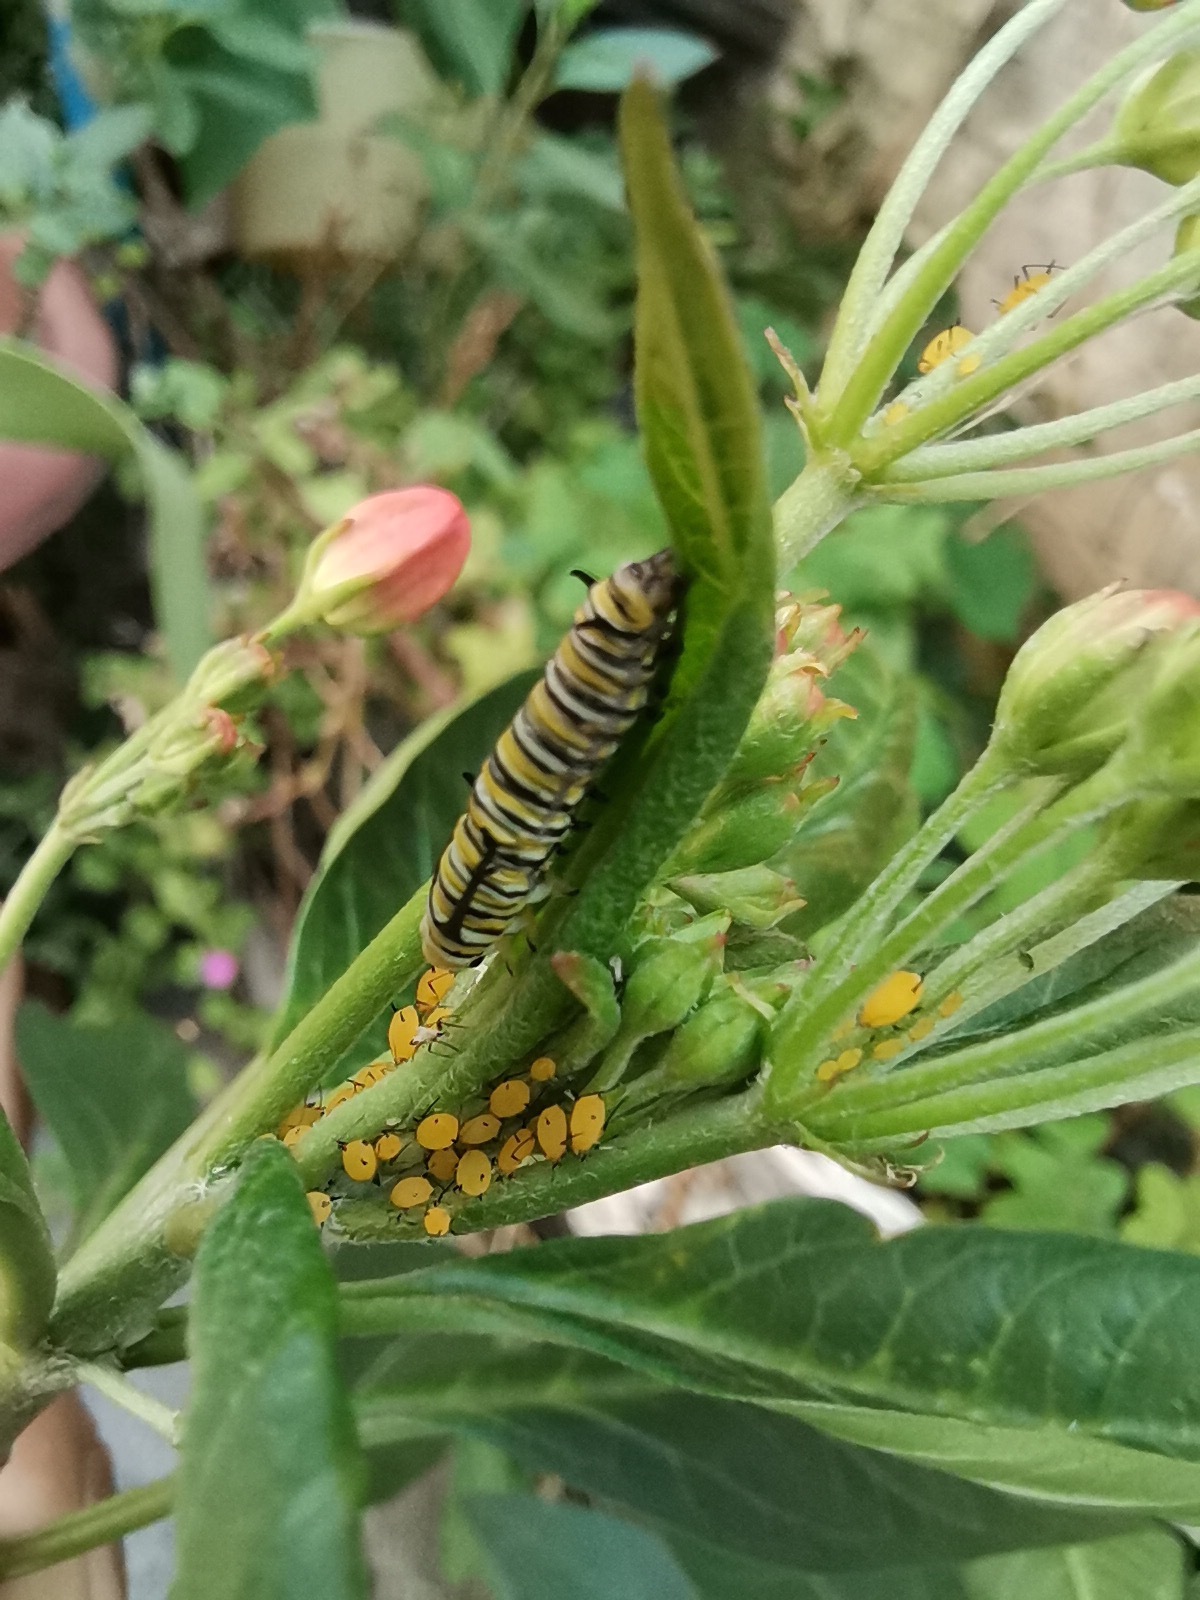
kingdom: Animalia
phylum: Arthropoda
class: Insecta
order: Hemiptera
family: Aphididae
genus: Aphis
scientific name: Aphis nerii
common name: Oleander aphid
